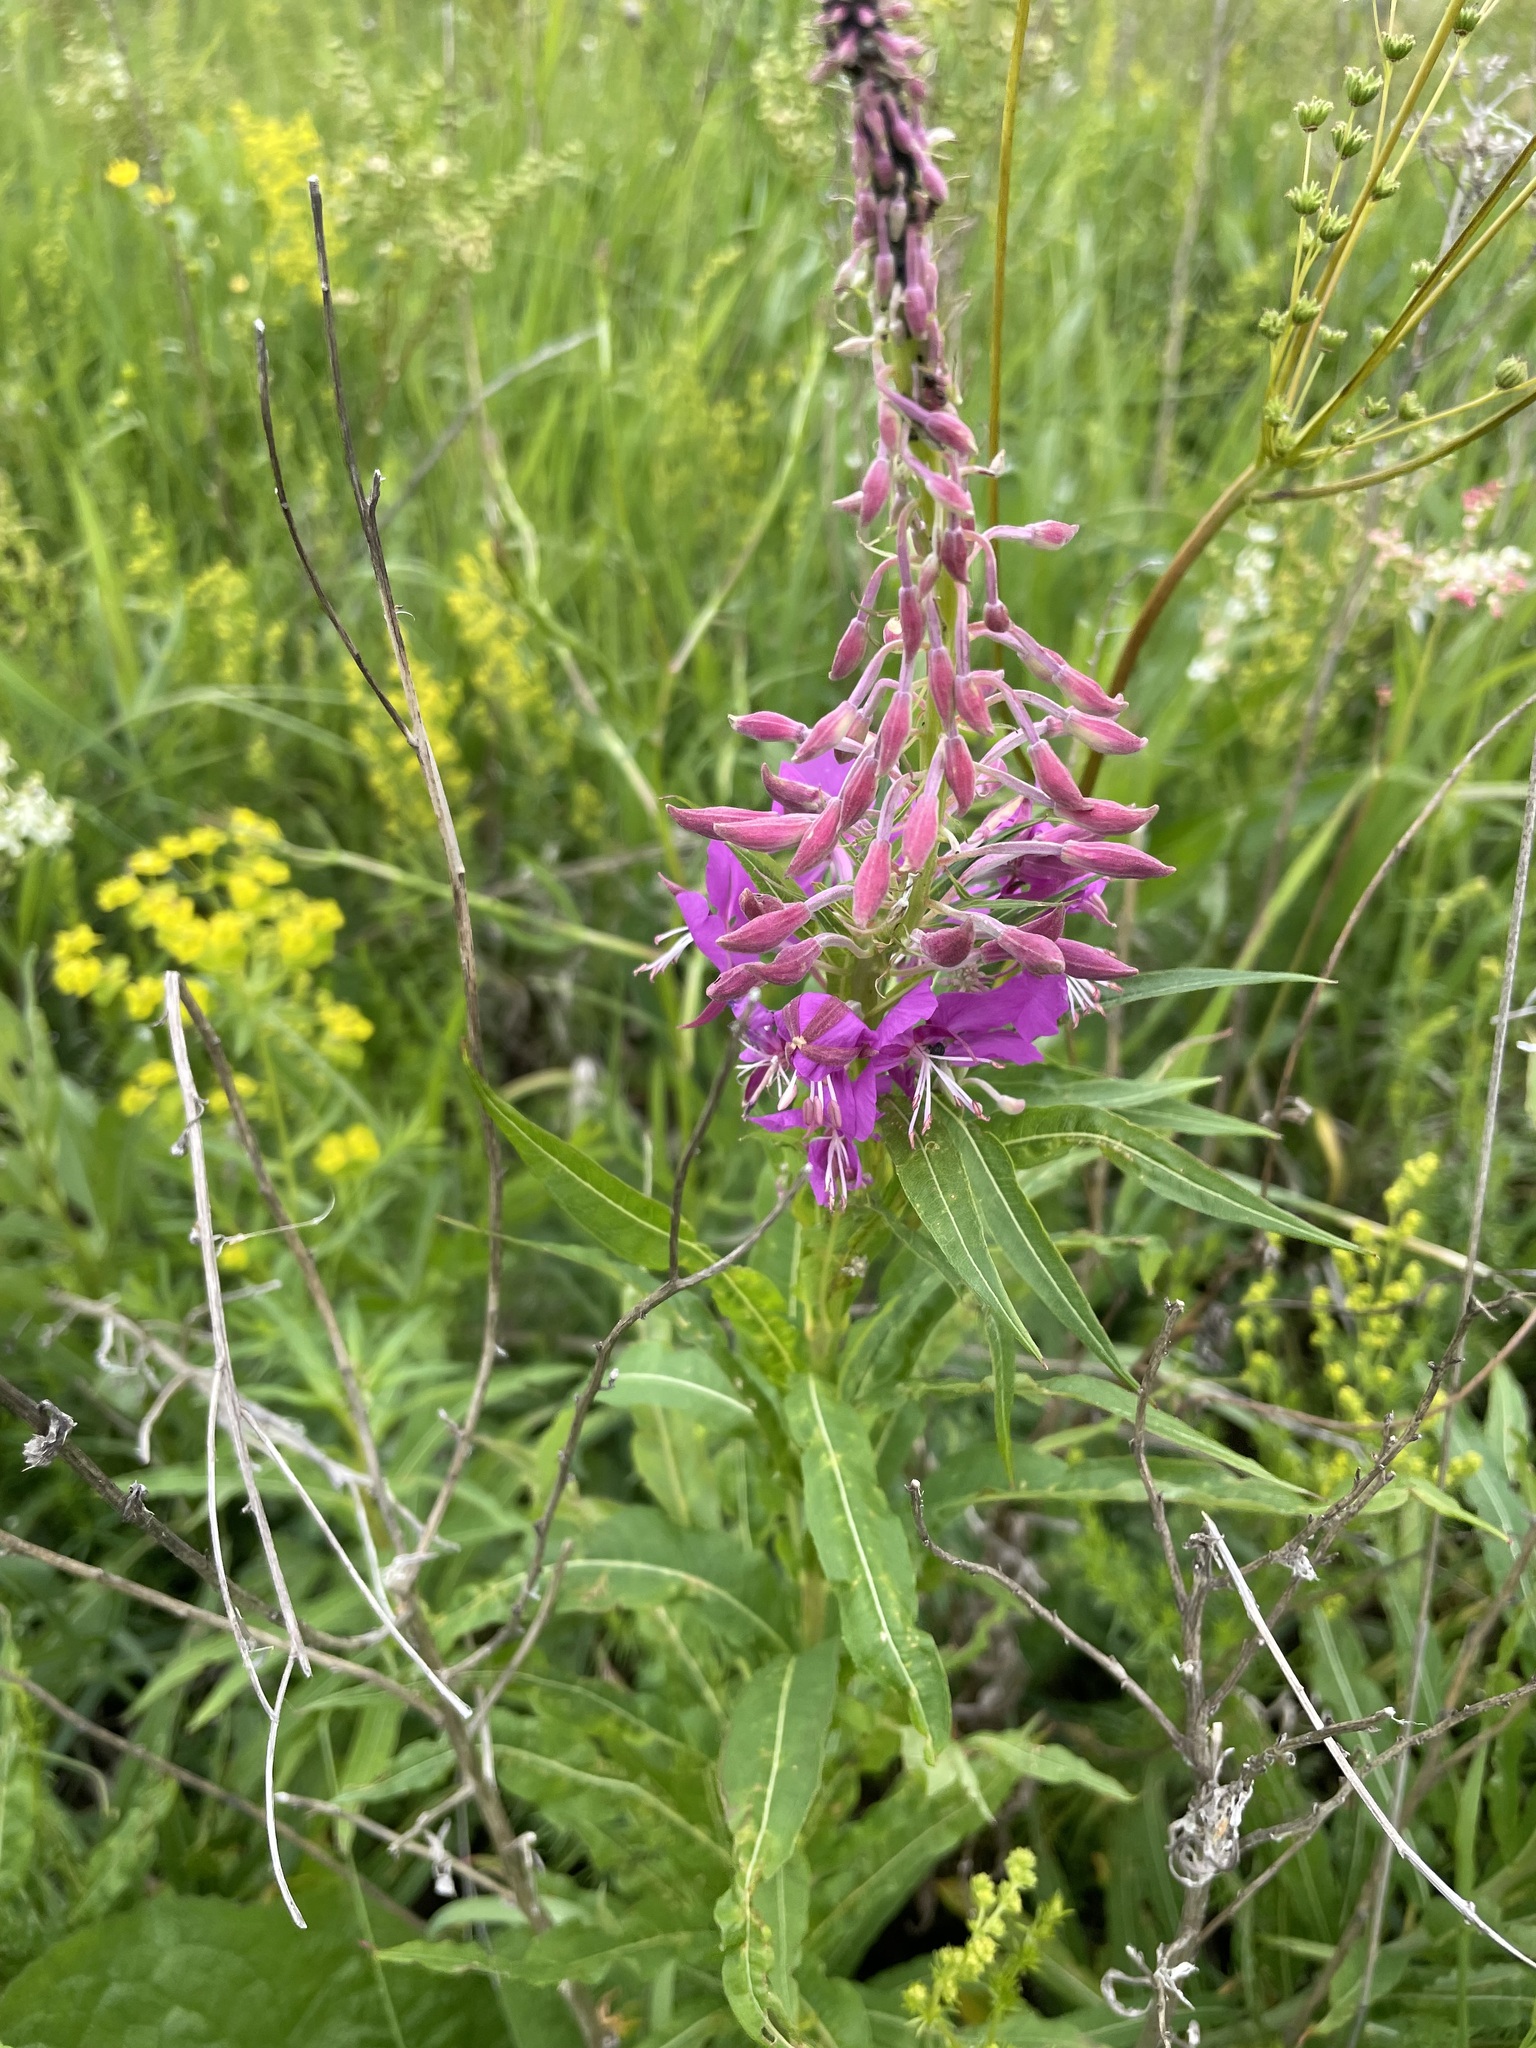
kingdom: Plantae
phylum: Tracheophyta
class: Magnoliopsida
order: Myrtales
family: Onagraceae
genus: Chamaenerion
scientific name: Chamaenerion angustifolium
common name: Fireweed
